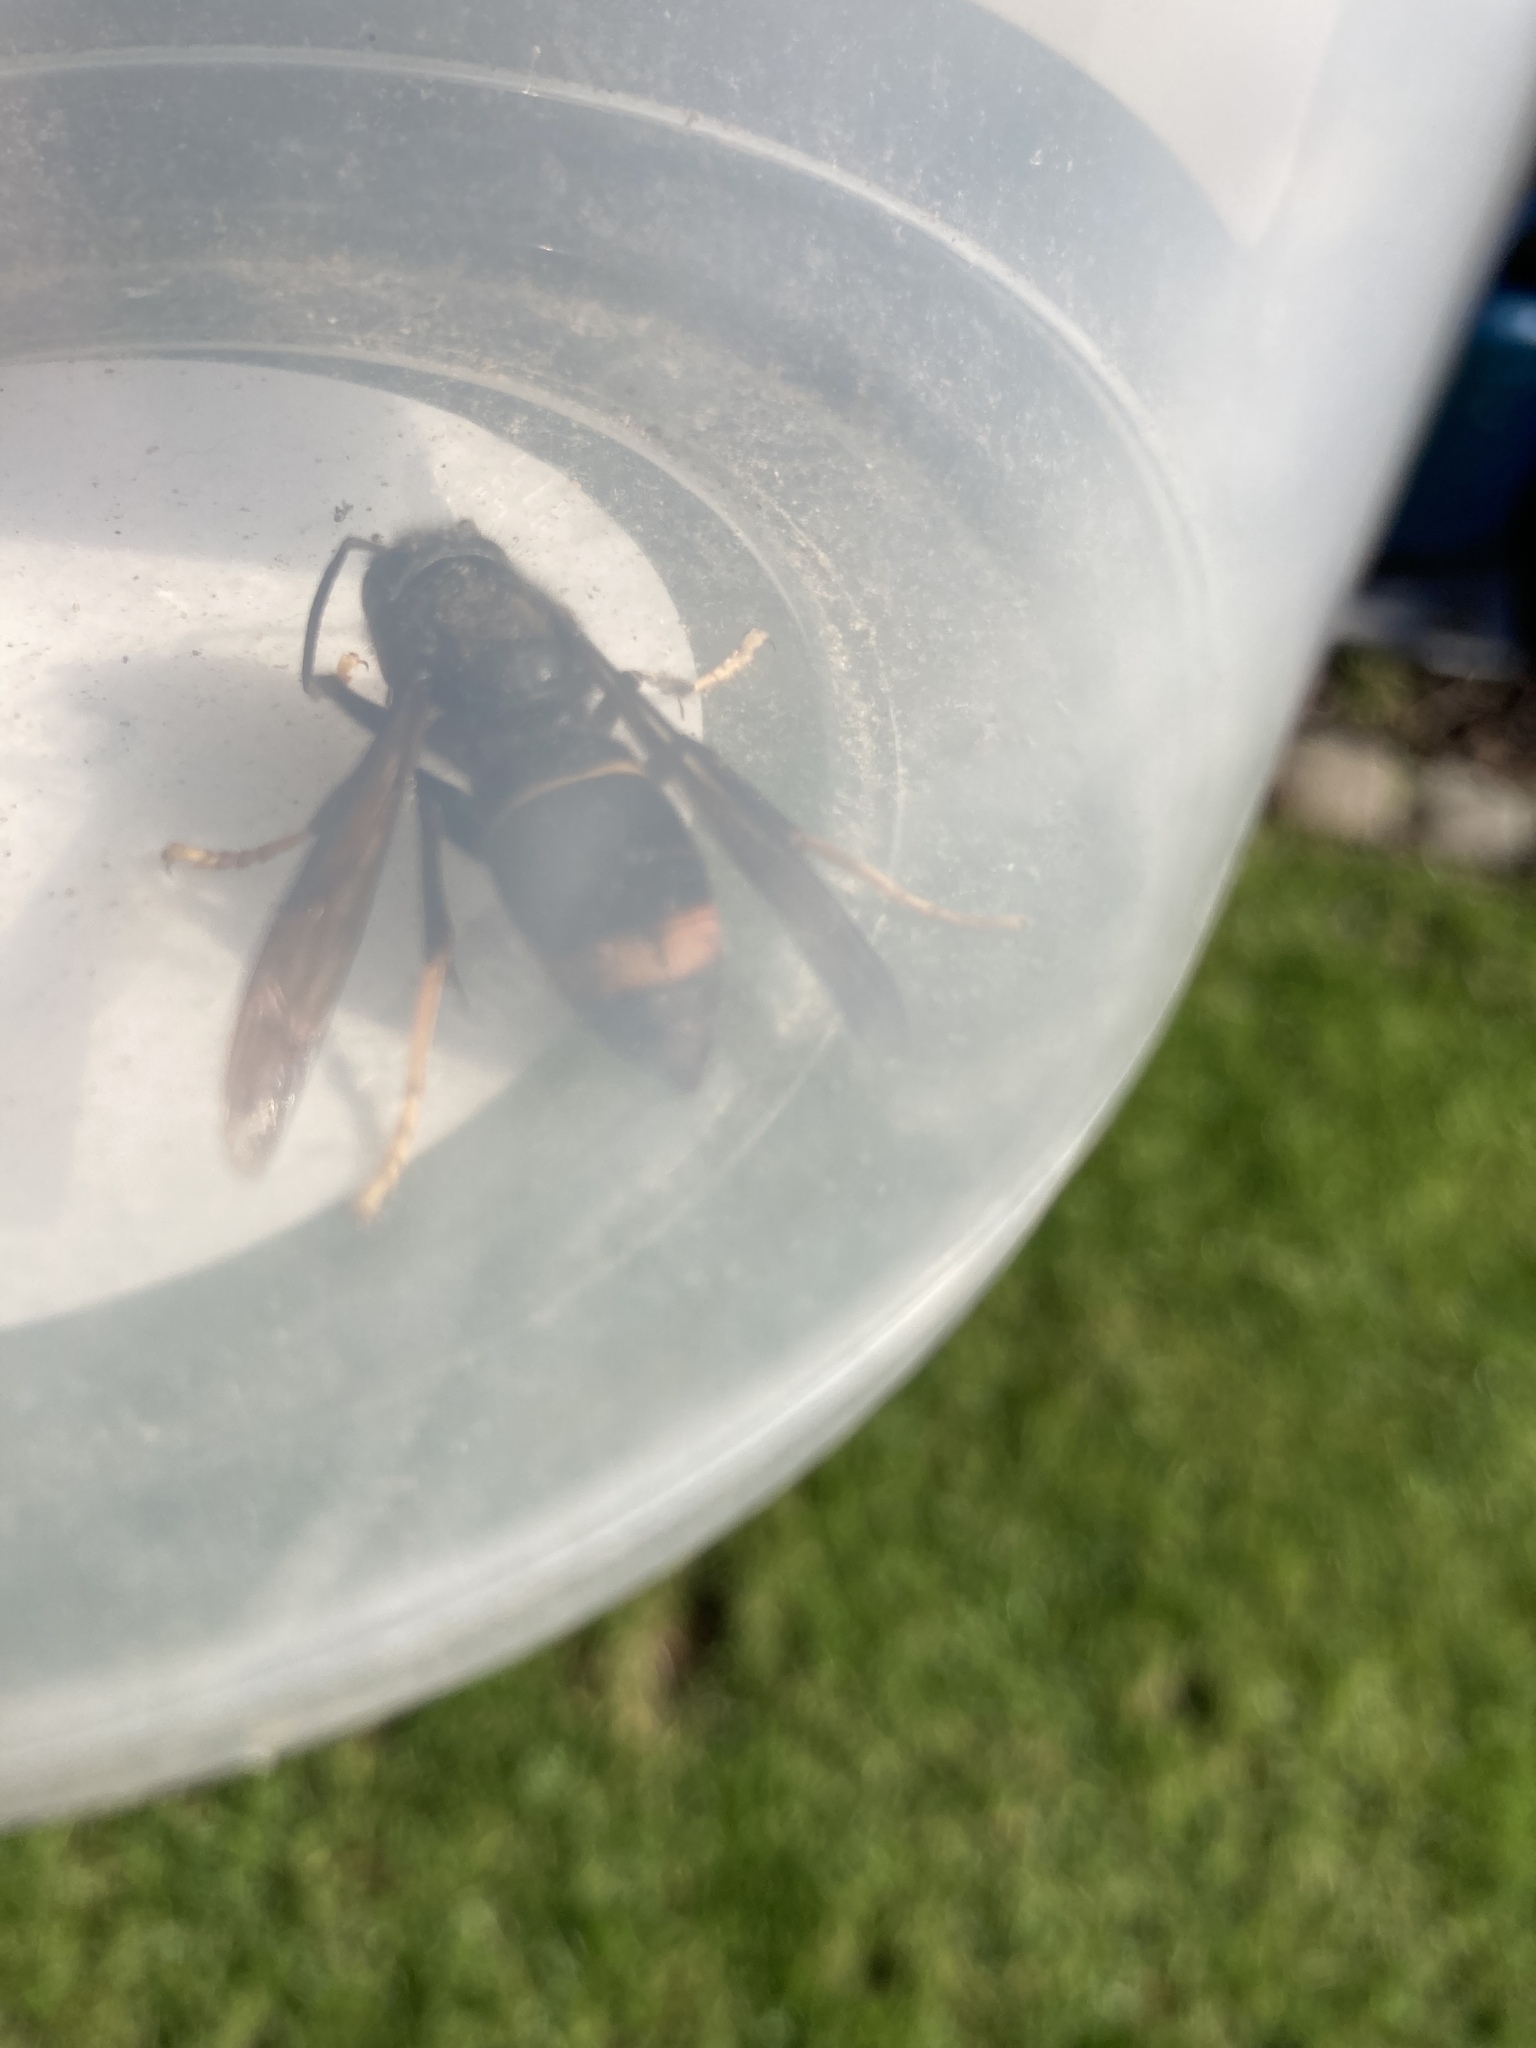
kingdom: Animalia
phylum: Arthropoda
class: Insecta
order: Hymenoptera
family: Vespidae
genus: Vespa
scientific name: Vespa velutina
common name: Asian hornet
